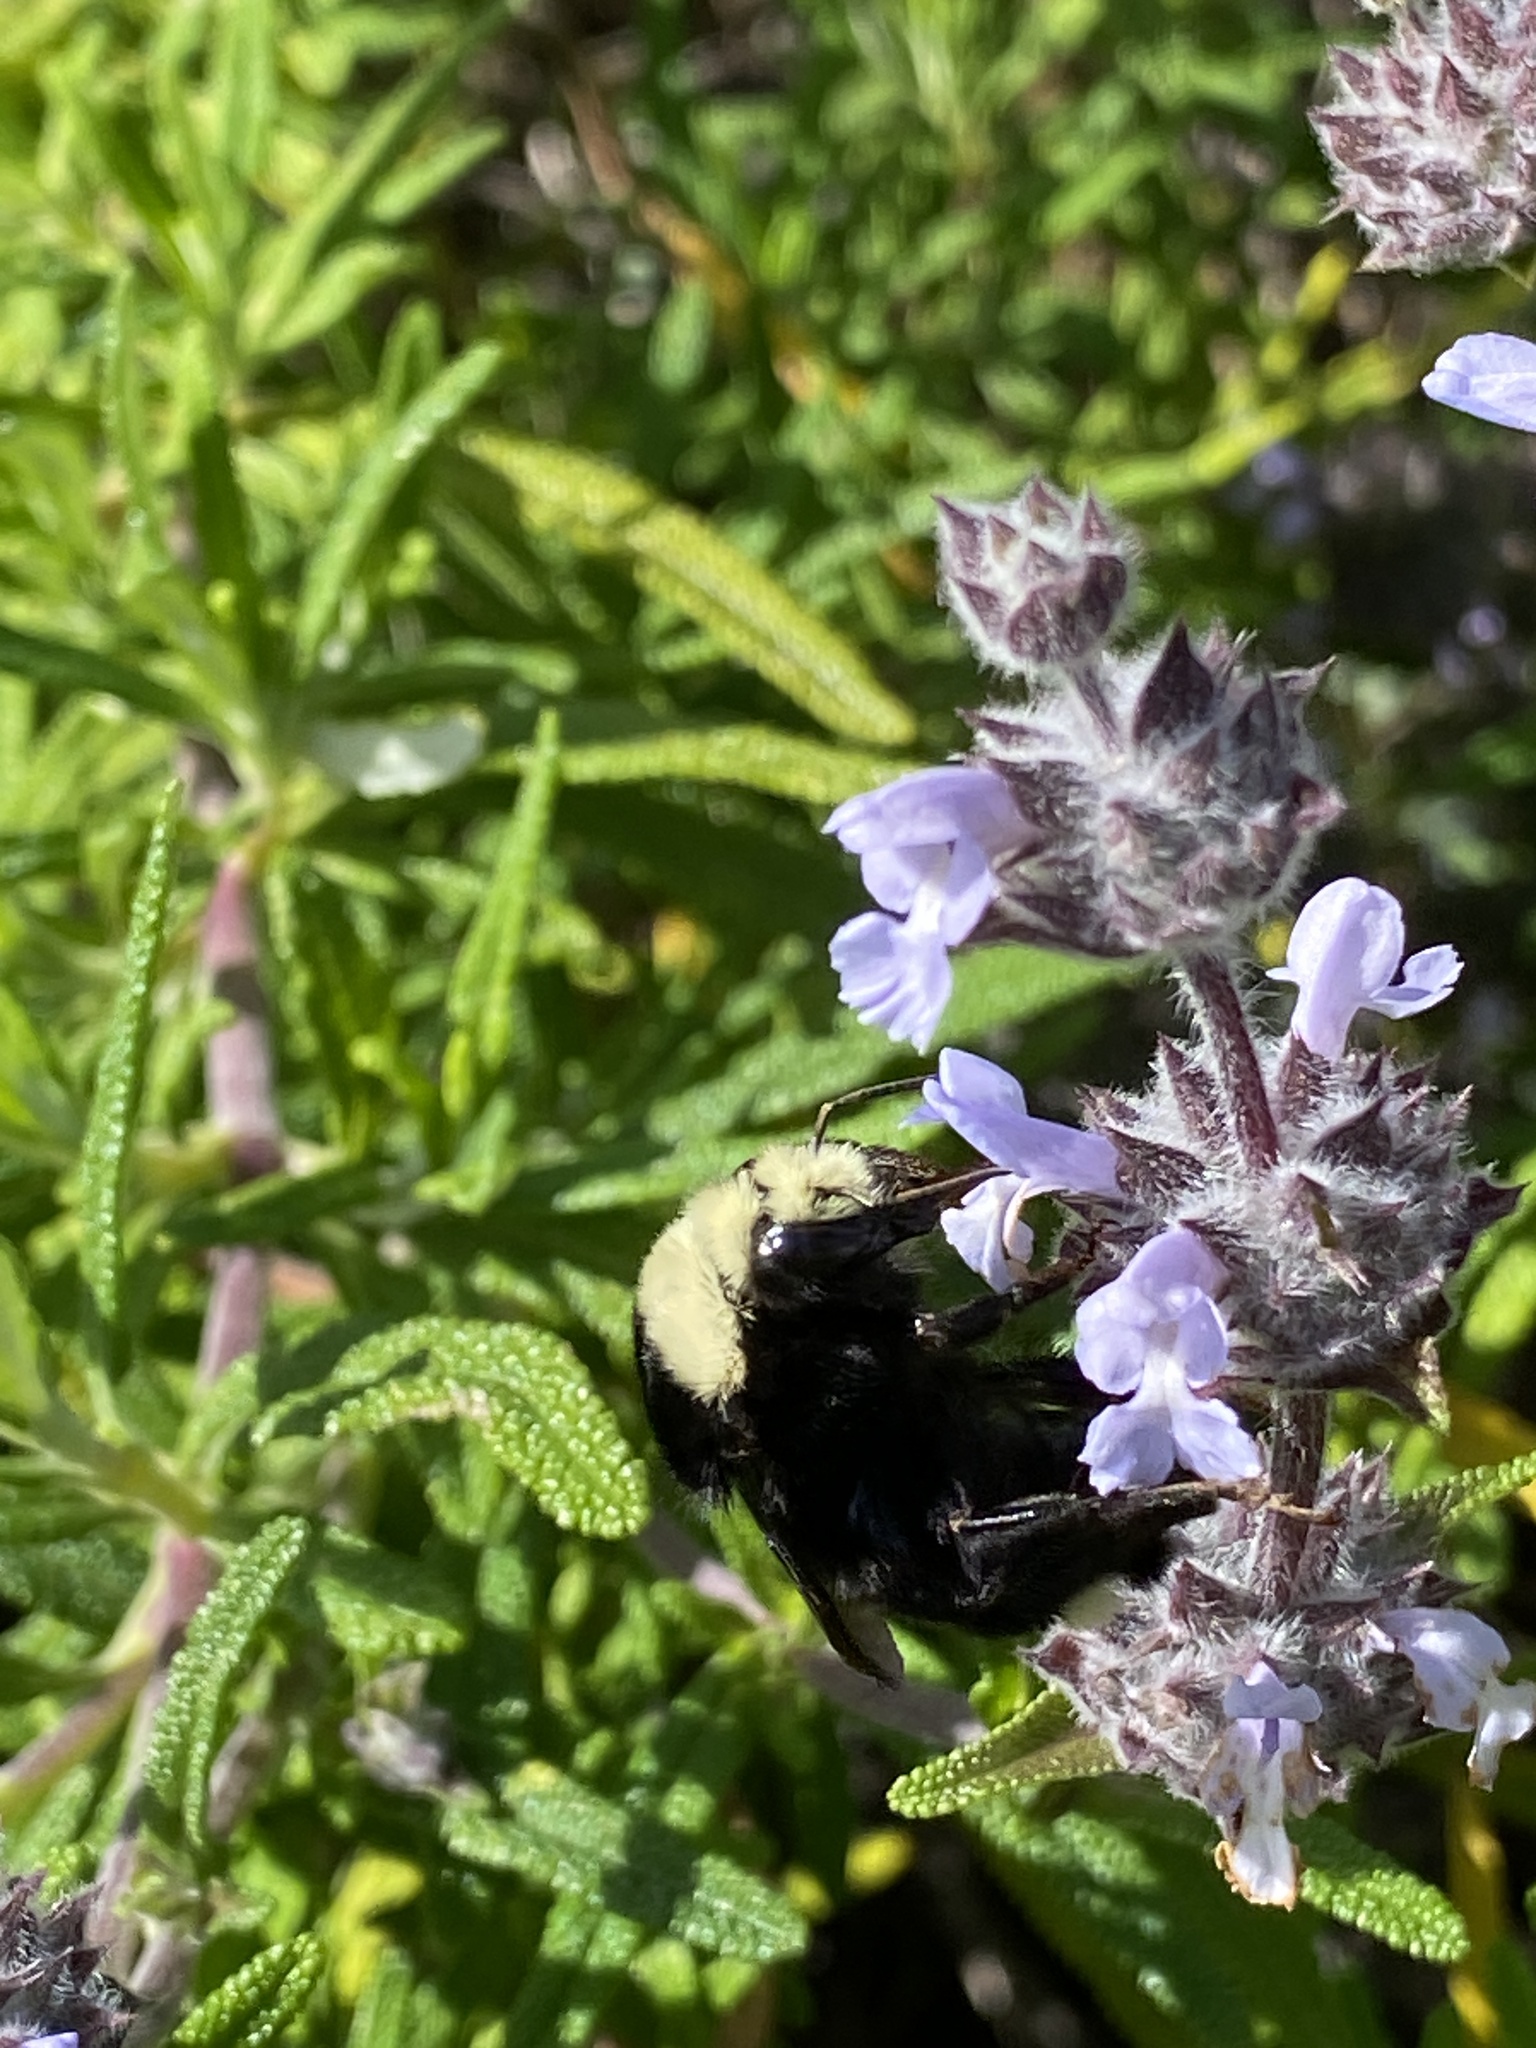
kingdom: Animalia
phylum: Arthropoda
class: Insecta
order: Hymenoptera
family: Apidae
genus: Bombus
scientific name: Bombus vosnesenskii
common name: Vosnesensky bumble bee
